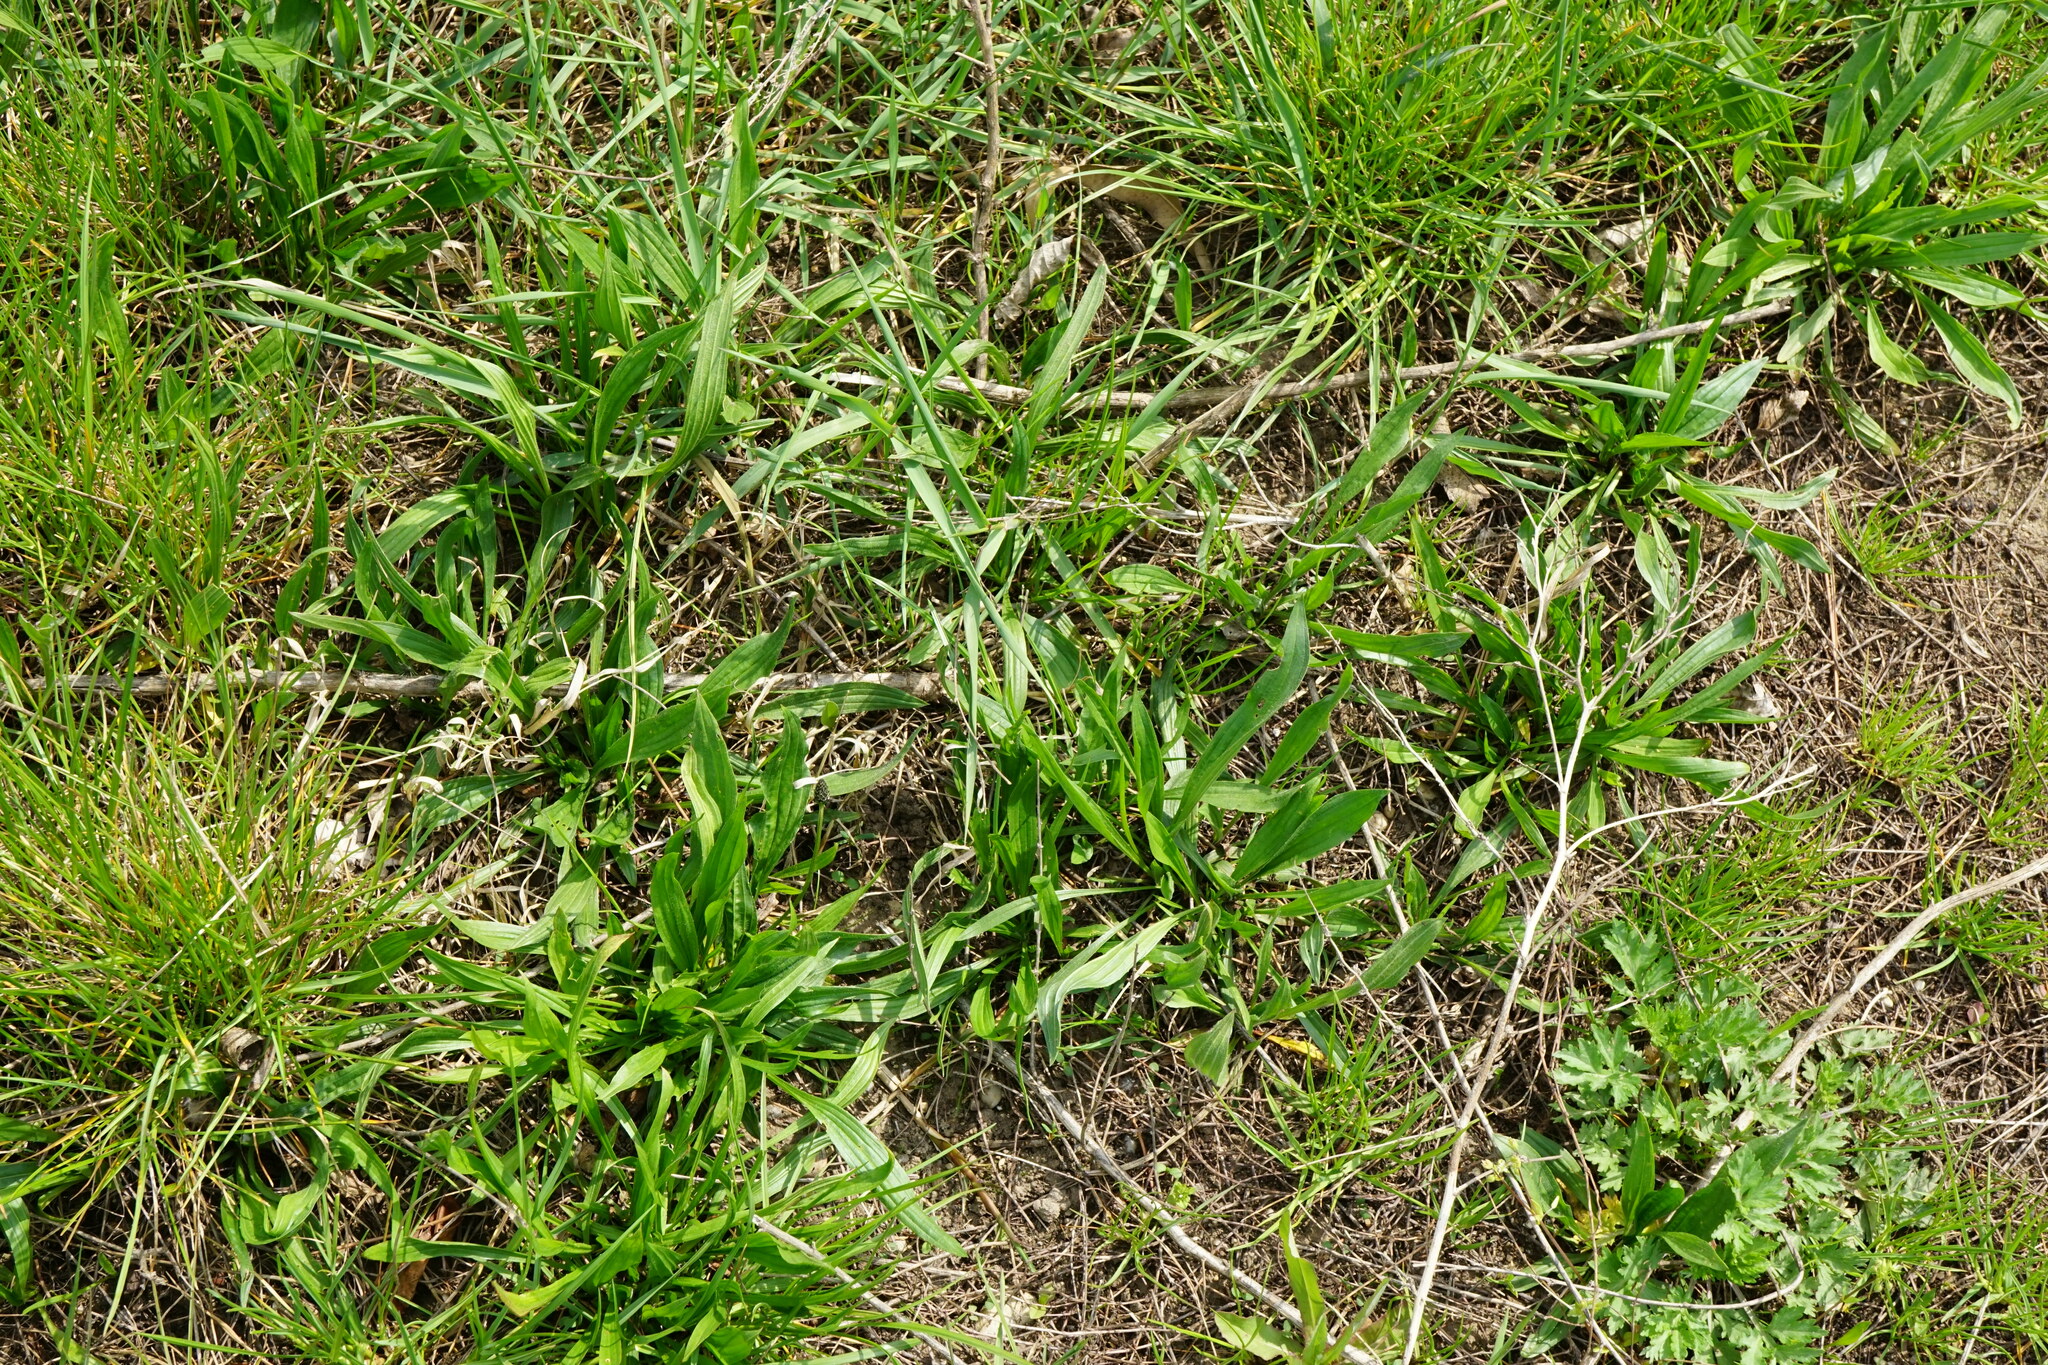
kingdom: Plantae
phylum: Tracheophyta
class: Magnoliopsida
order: Lamiales
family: Plantaginaceae
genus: Plantago
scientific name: Plantago lanceolata
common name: Ribwort plantain
